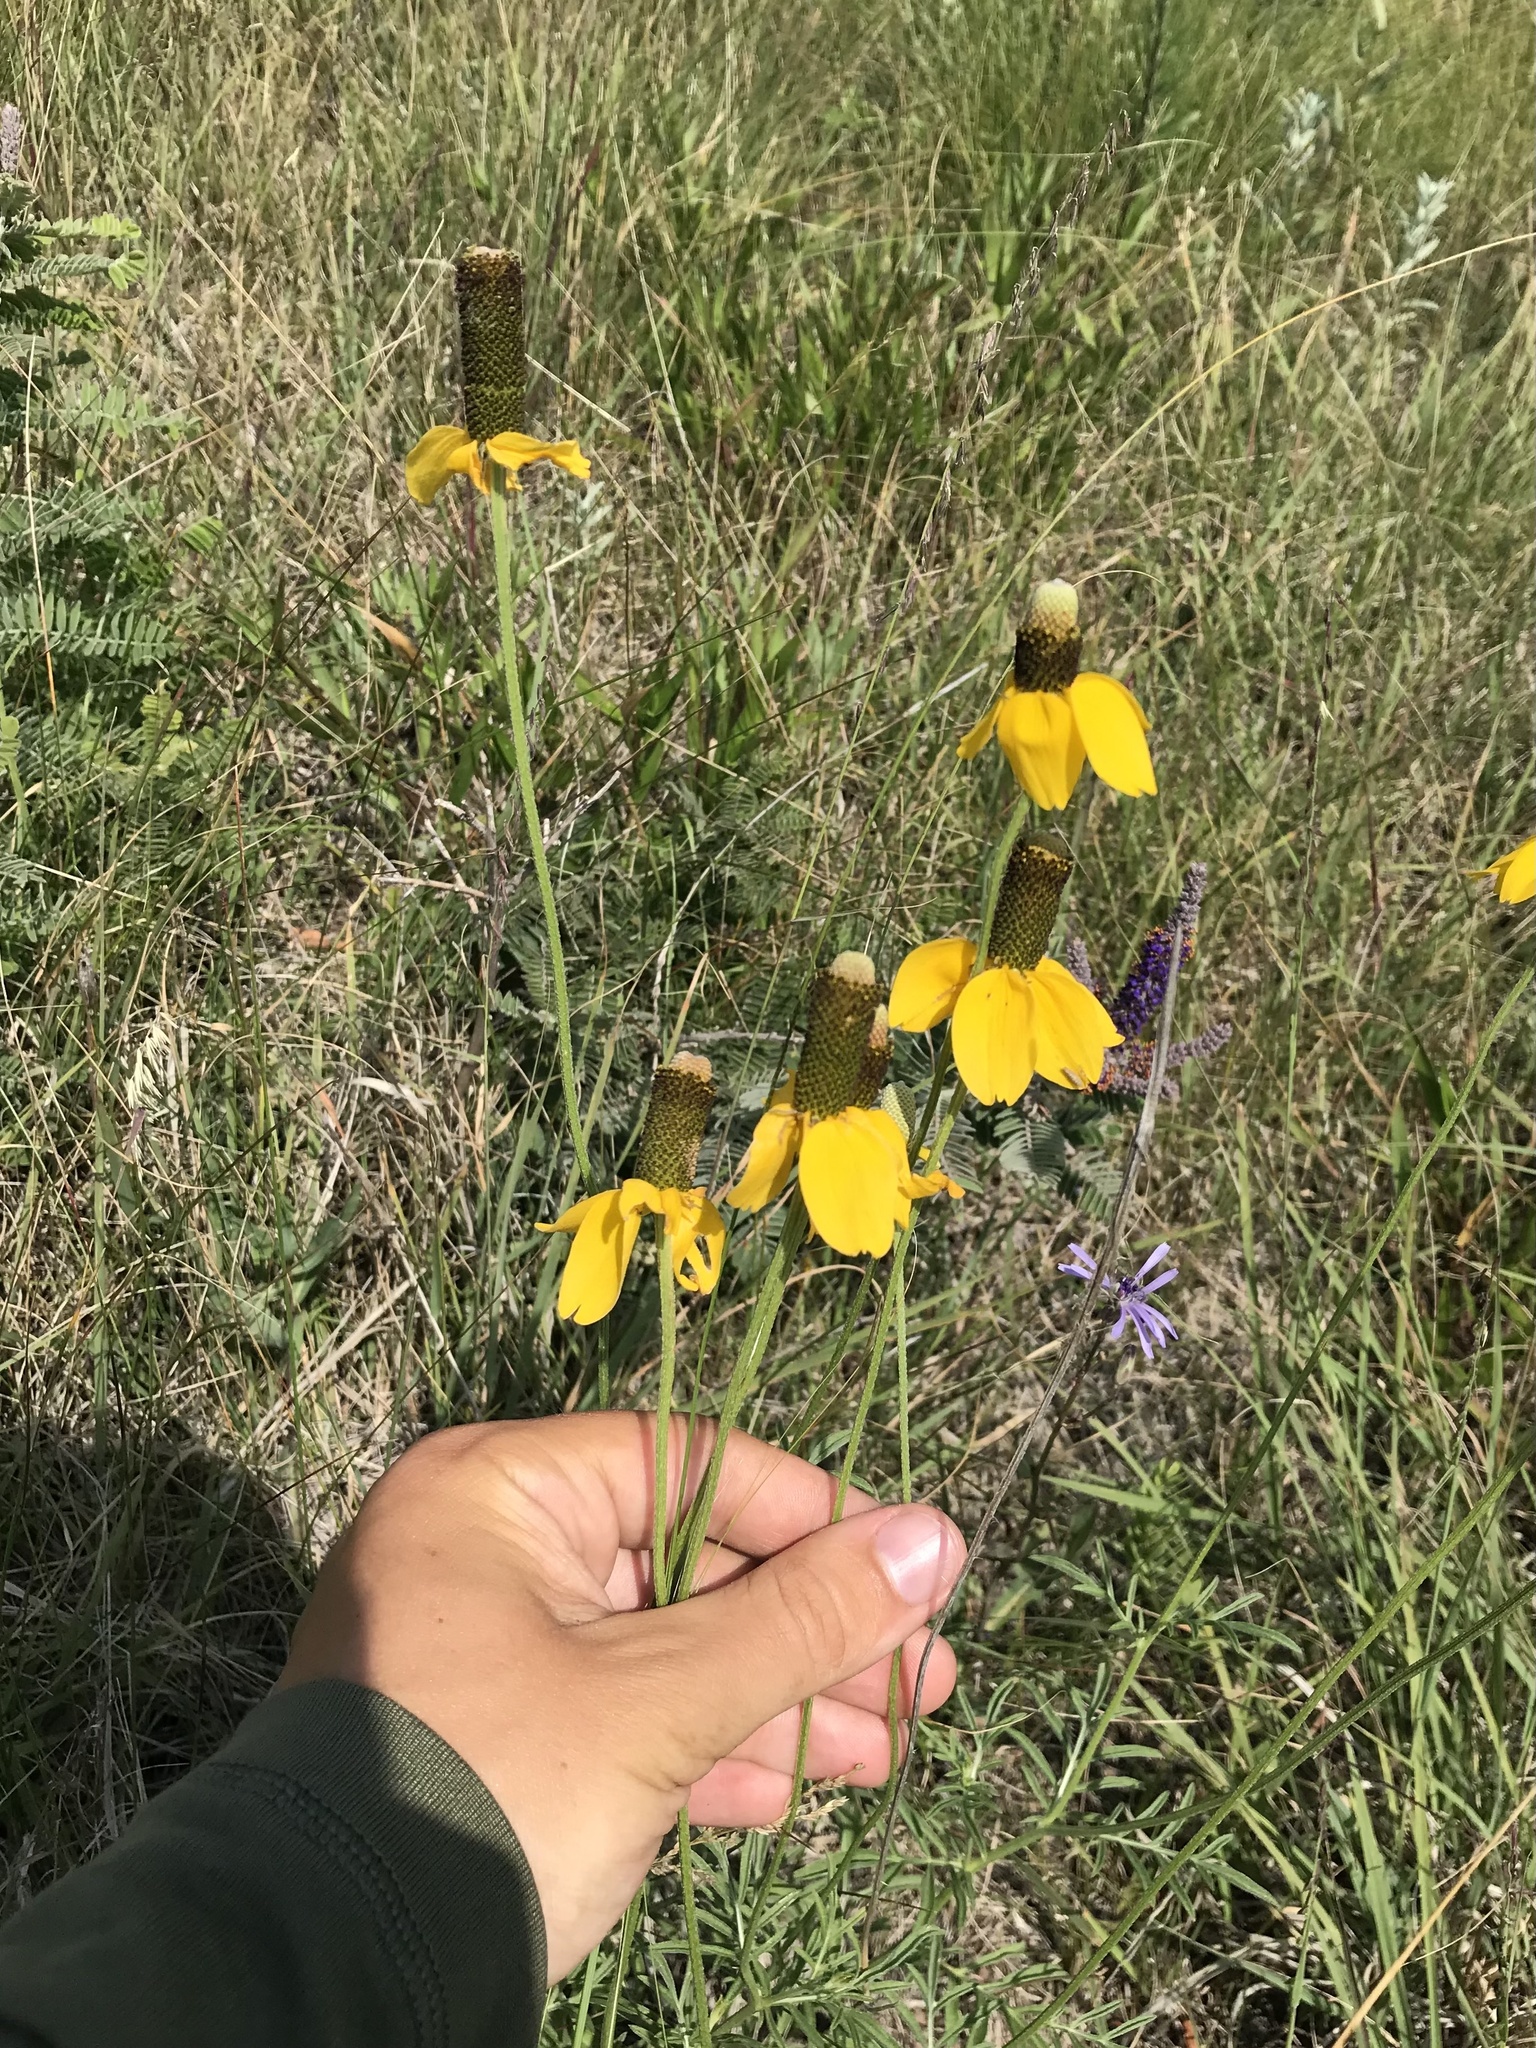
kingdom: Plantae
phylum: Tracheophyta
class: Magnoliopsida
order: Asterales
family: Asteraceae
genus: Ratibida
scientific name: Ratibida columnifera
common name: Prairie coneflower
